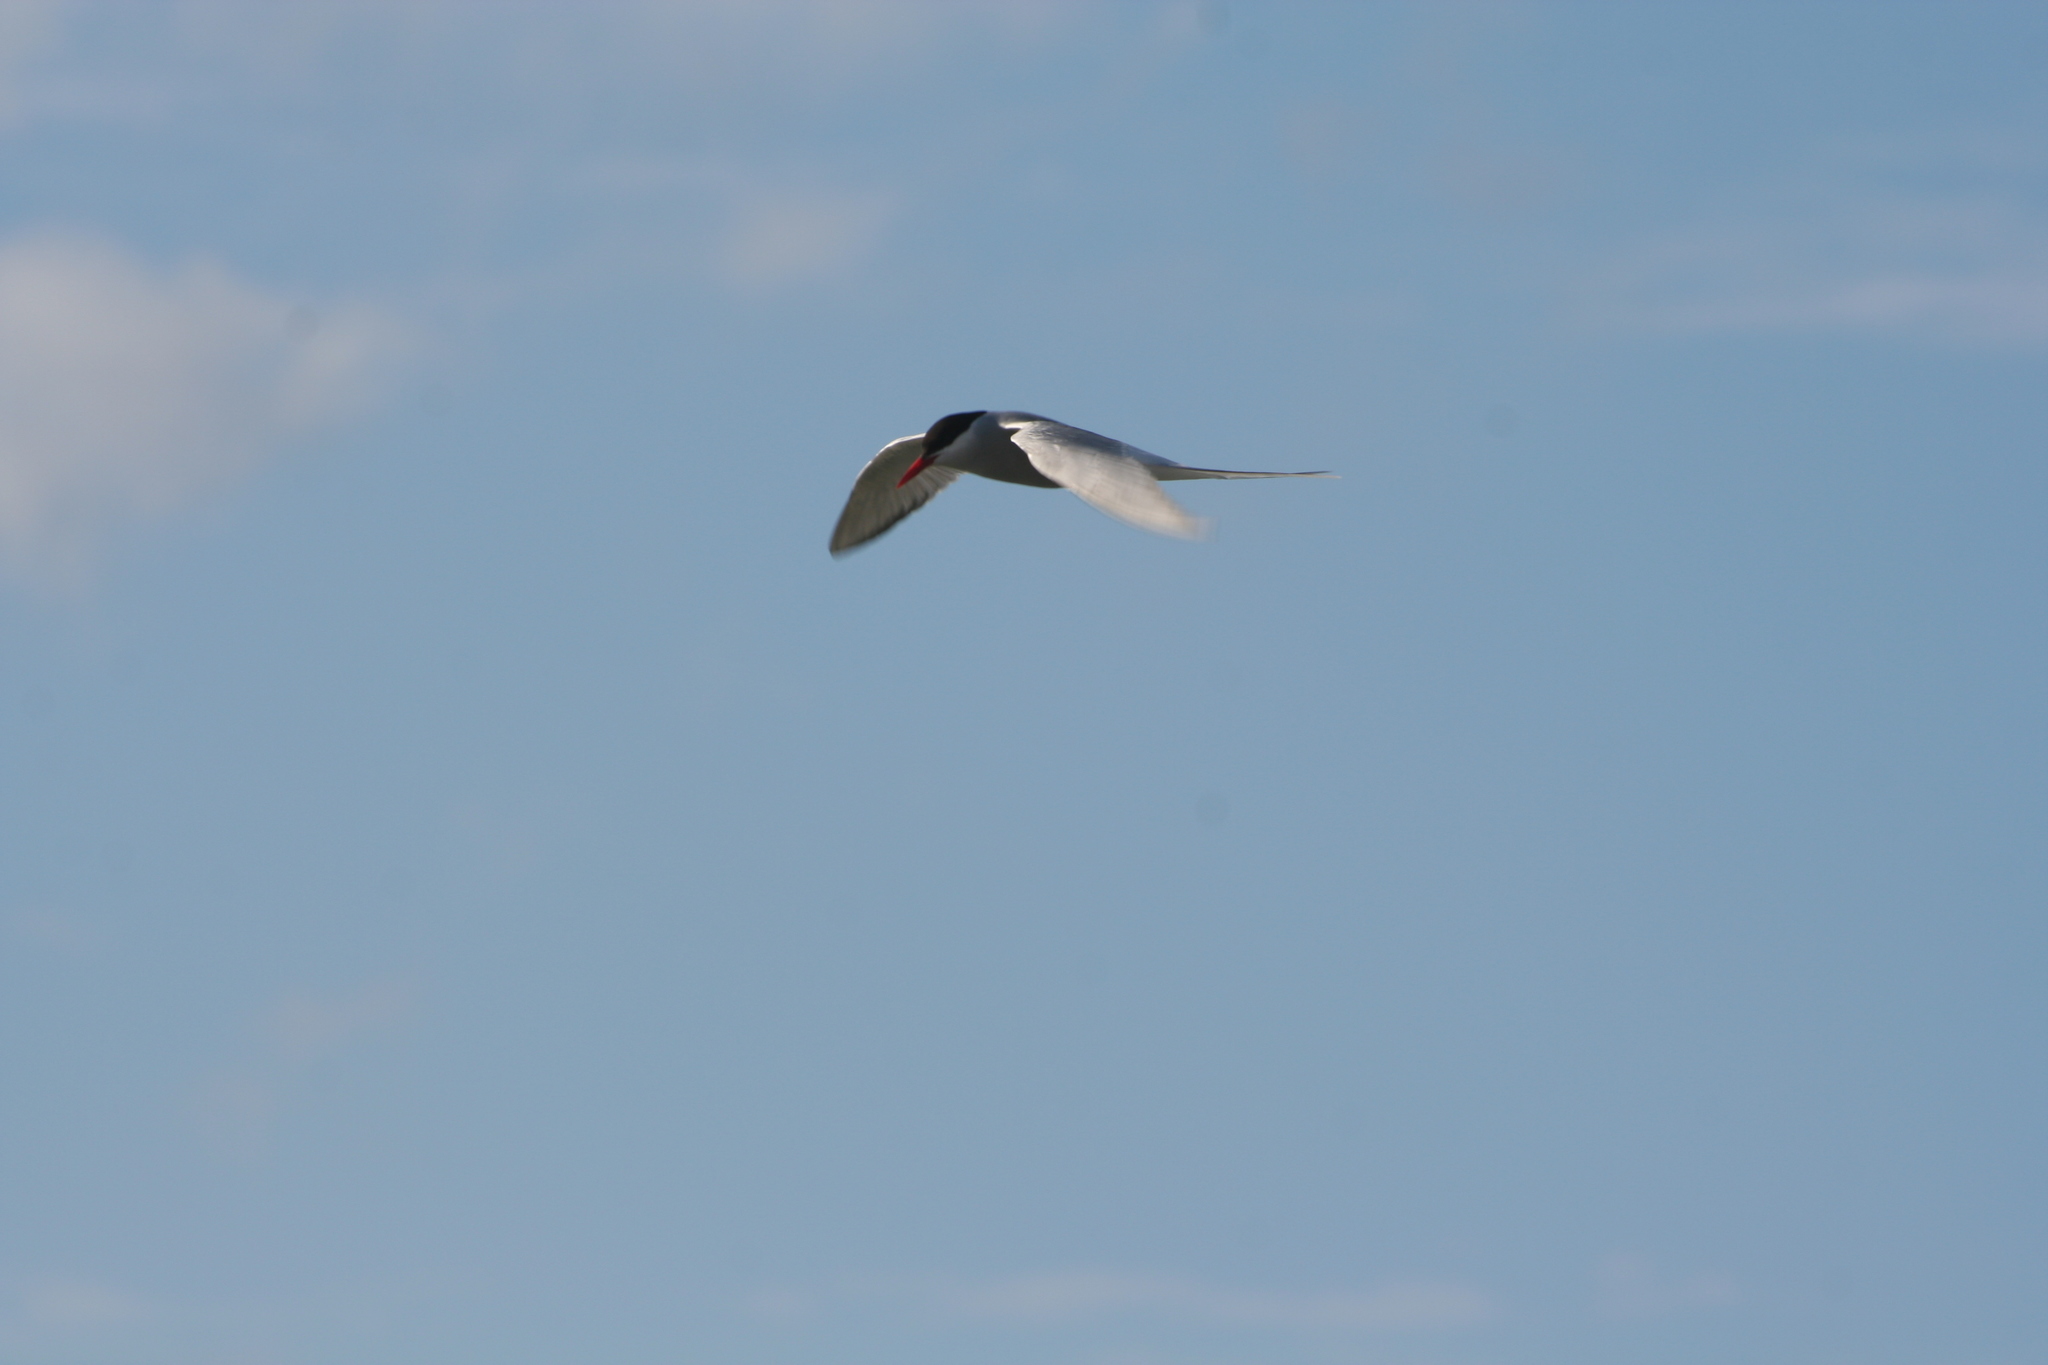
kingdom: Animalia
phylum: Chordata
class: Aves
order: Charadriiformes
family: Laridae
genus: Sterna
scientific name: Sterna paradisaea
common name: Arctic tern
